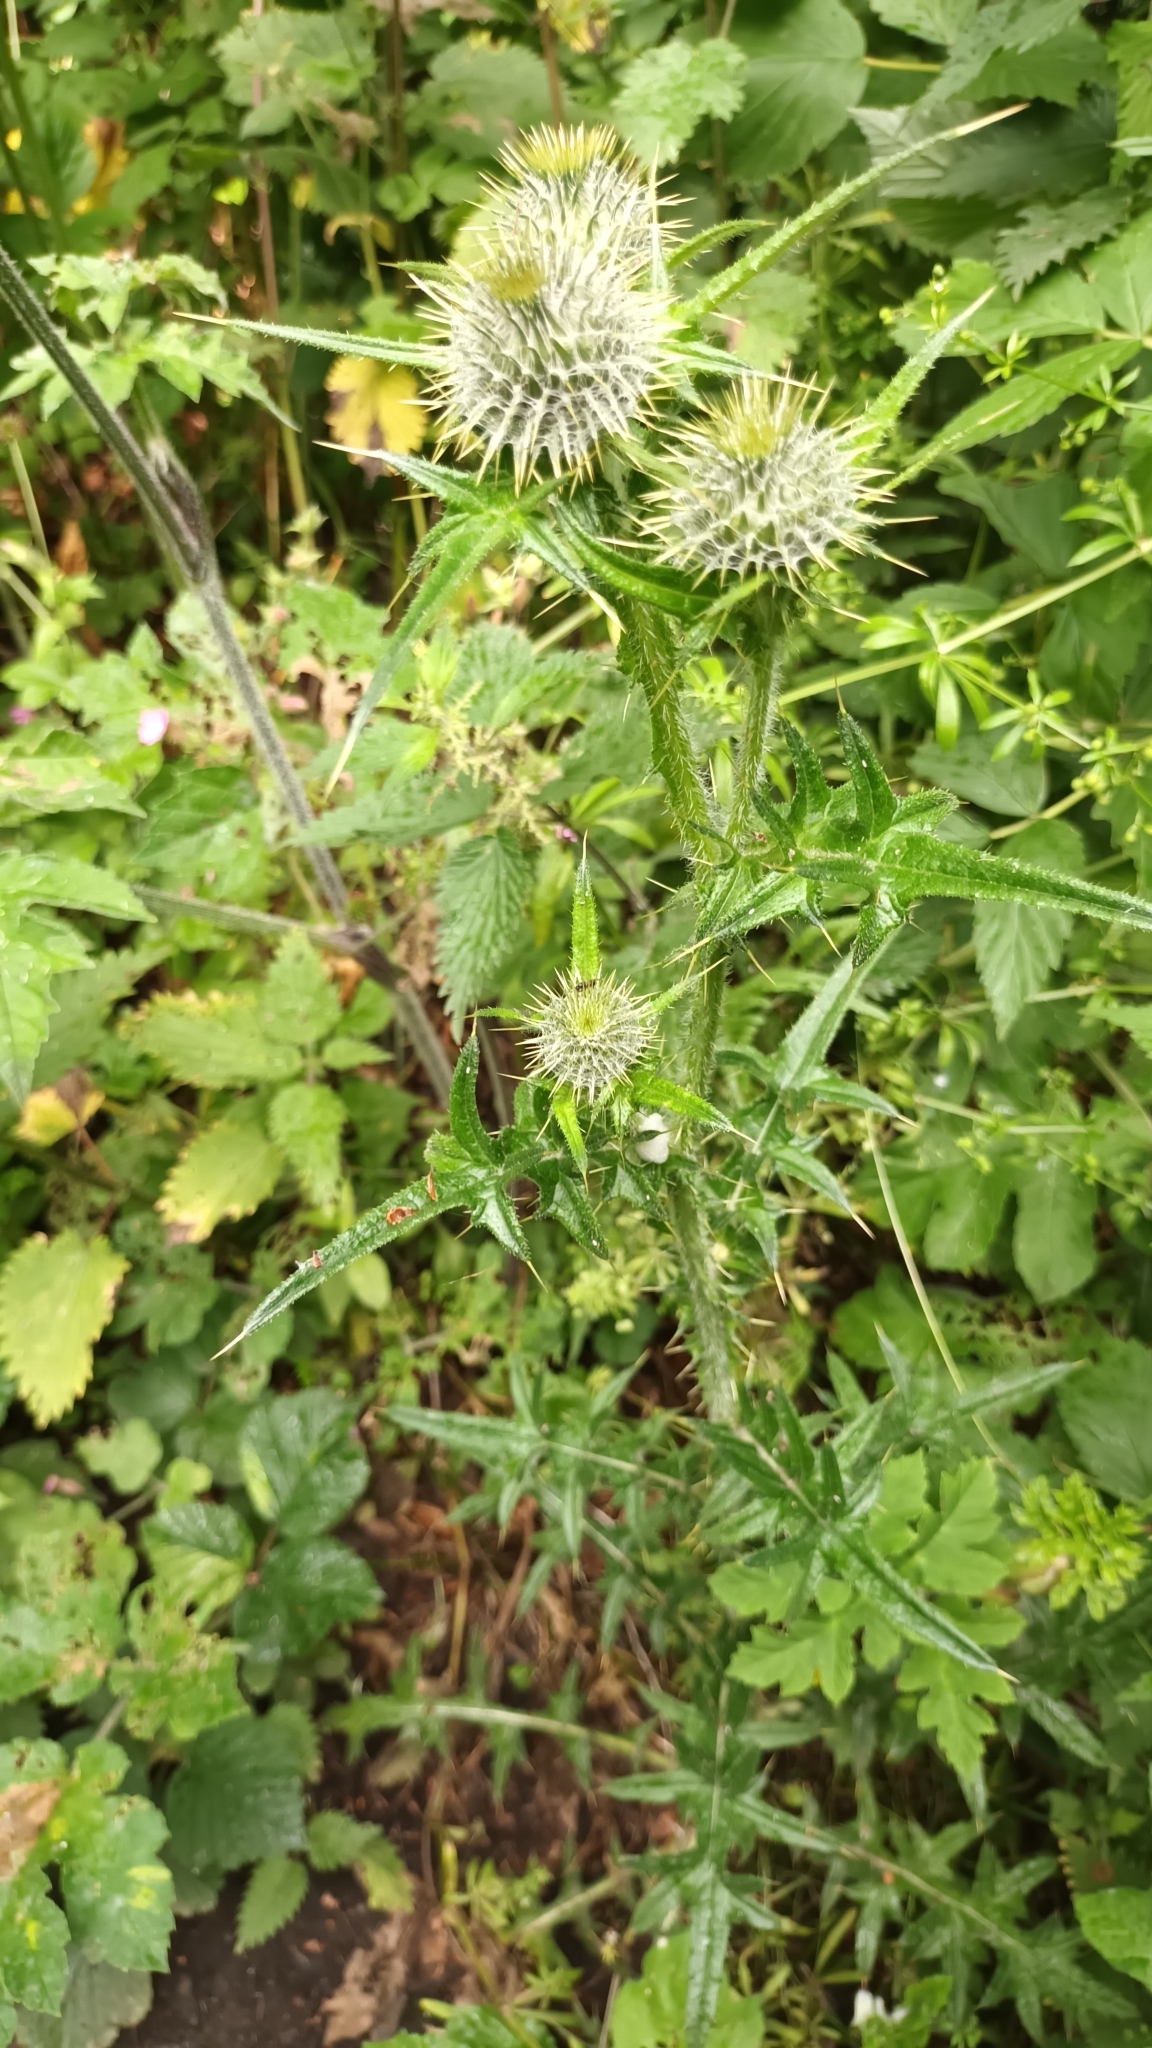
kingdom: Plantae
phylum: Tracheophyta
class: Magnoliopsida
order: Asterales
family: Asteraceae
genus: Cirsium
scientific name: Cirsium vulgare
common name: Bull thistle
